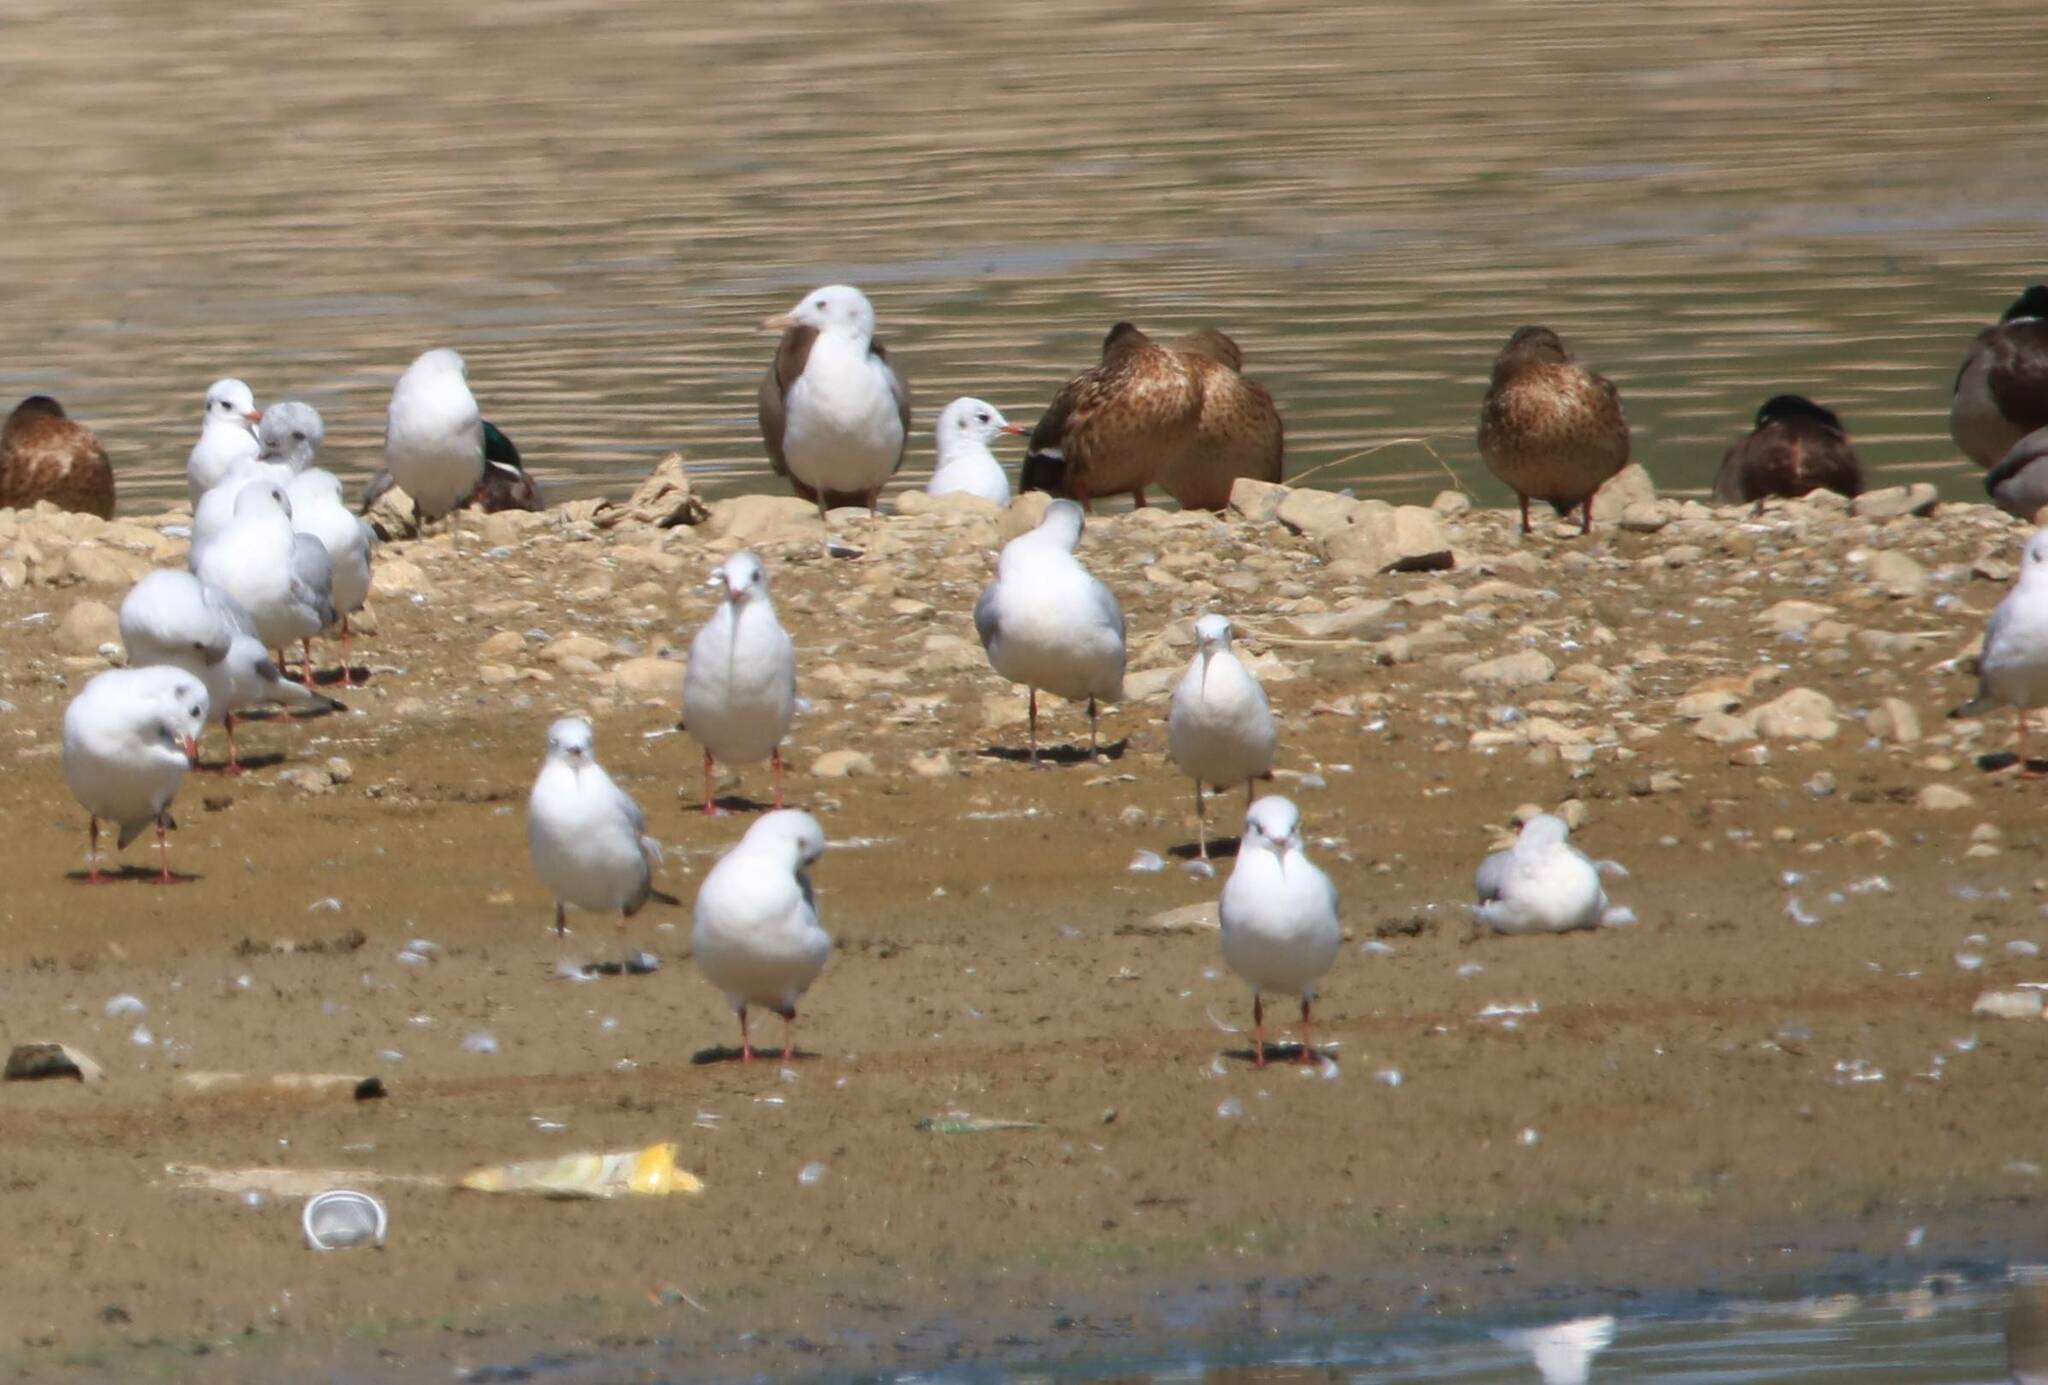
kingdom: Animalia
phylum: Chordata
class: Aves
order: Charadriiformes
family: Laridae
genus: Chroicocephalus
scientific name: Chroicocephalus ridibundus
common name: Black-headed gull
